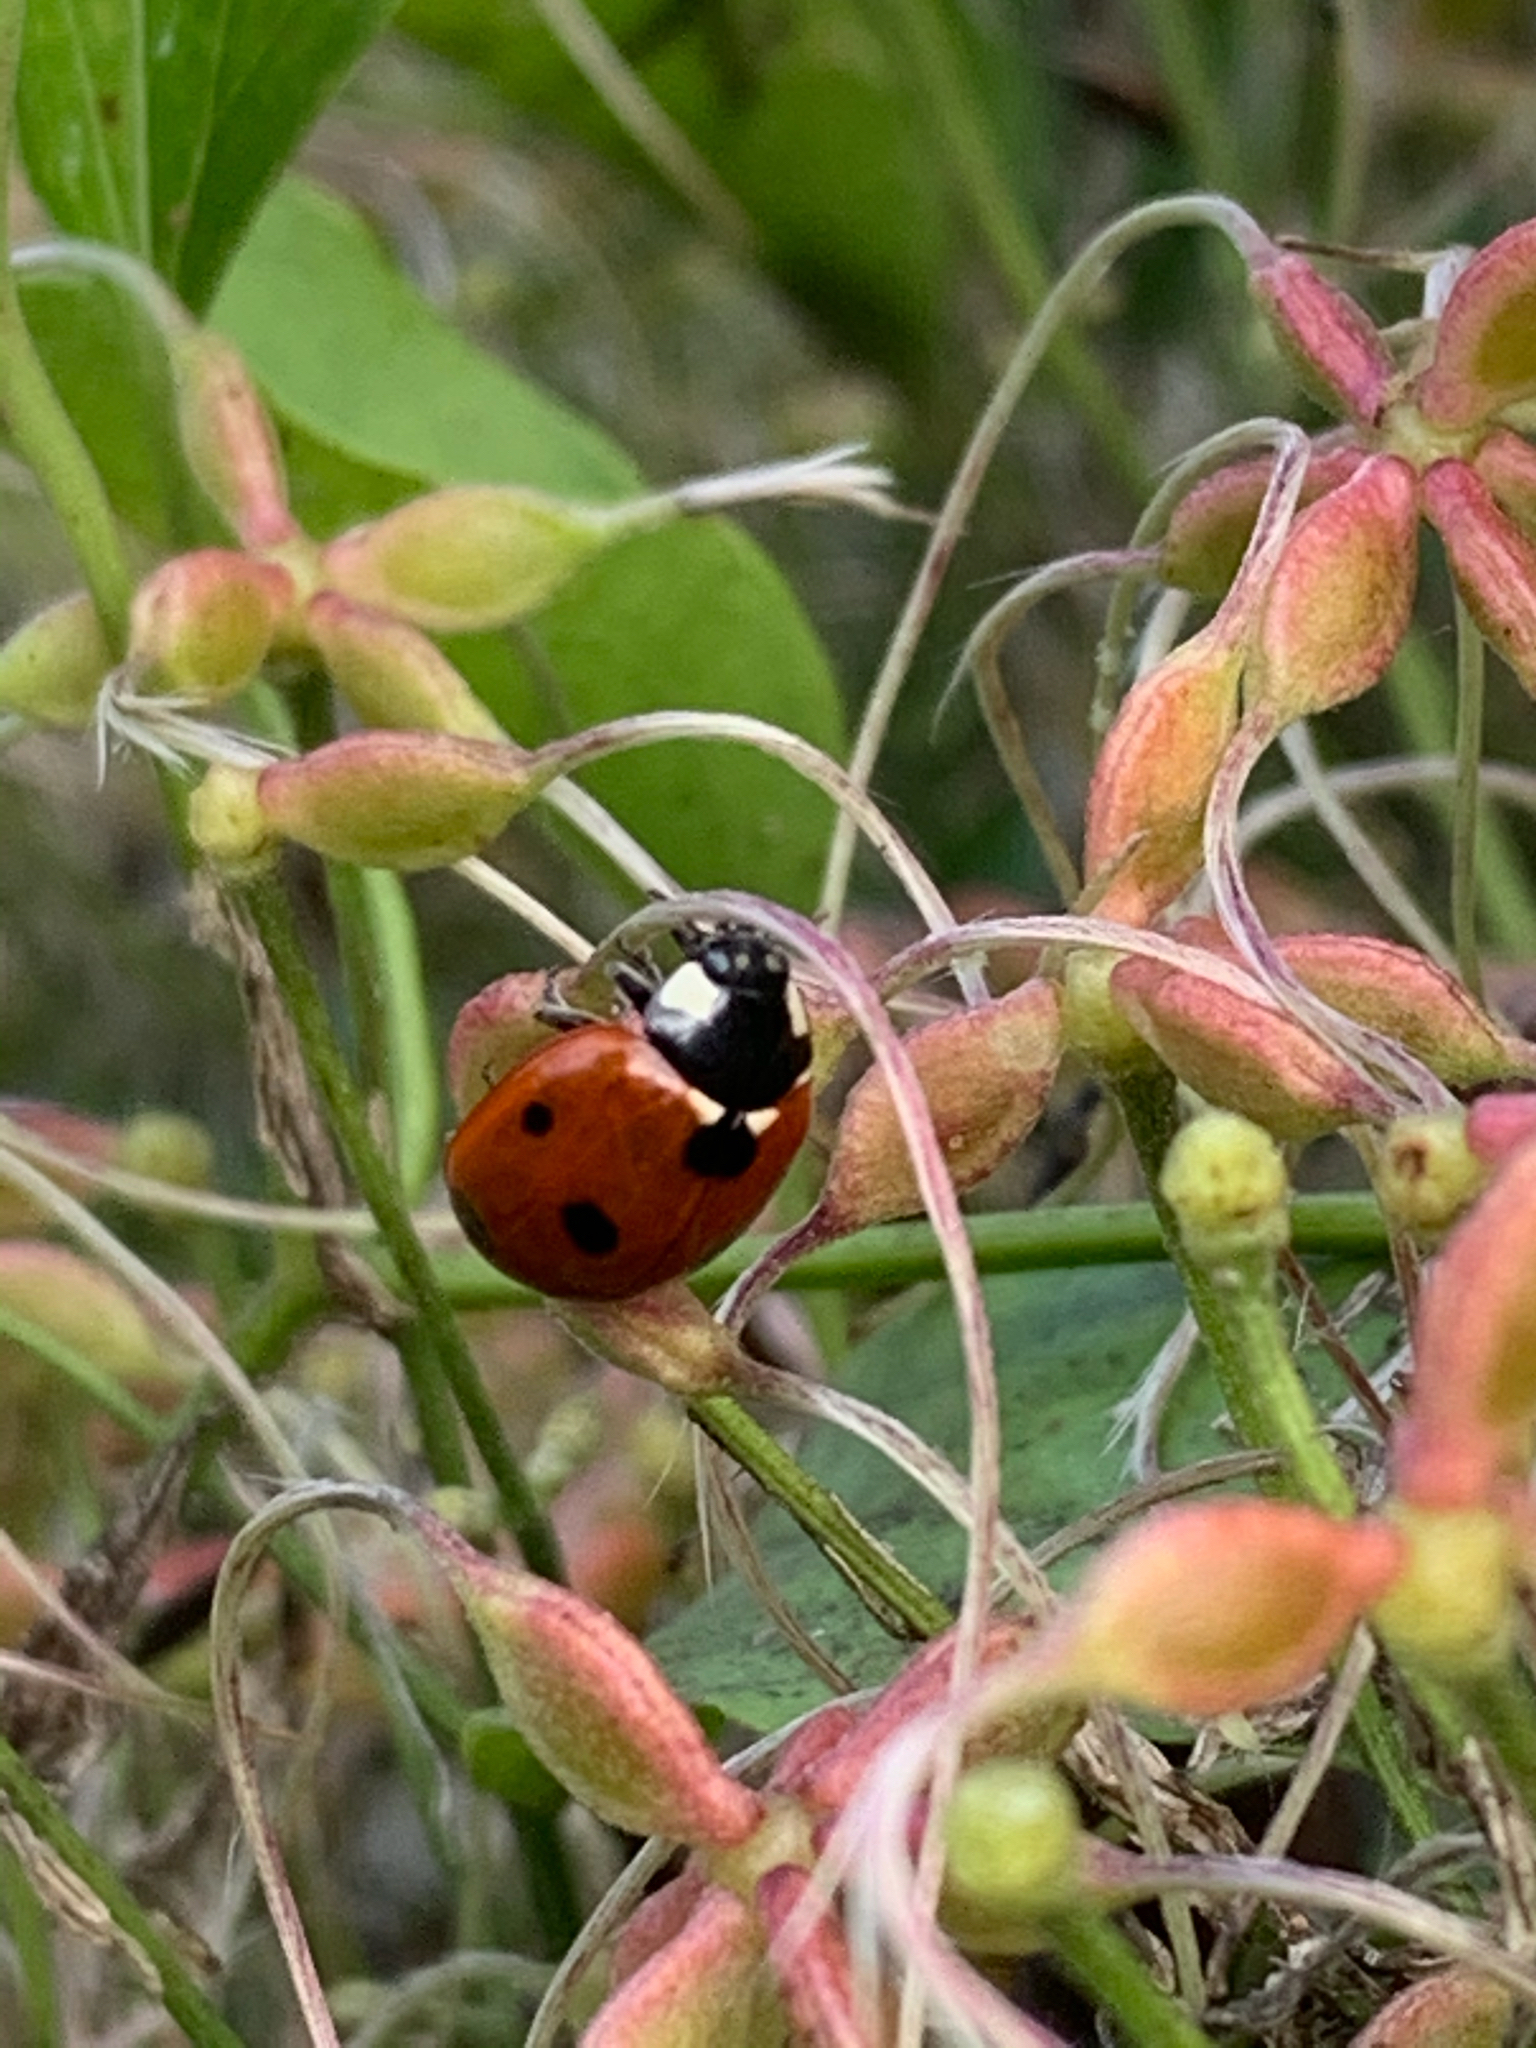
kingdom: Animalia
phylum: Arthropoda
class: Insecta
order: Coleoptera
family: Coccinellidae
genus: Coccinella
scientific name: Coccinella septempunctata
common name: Sevenspotted lady beetle
